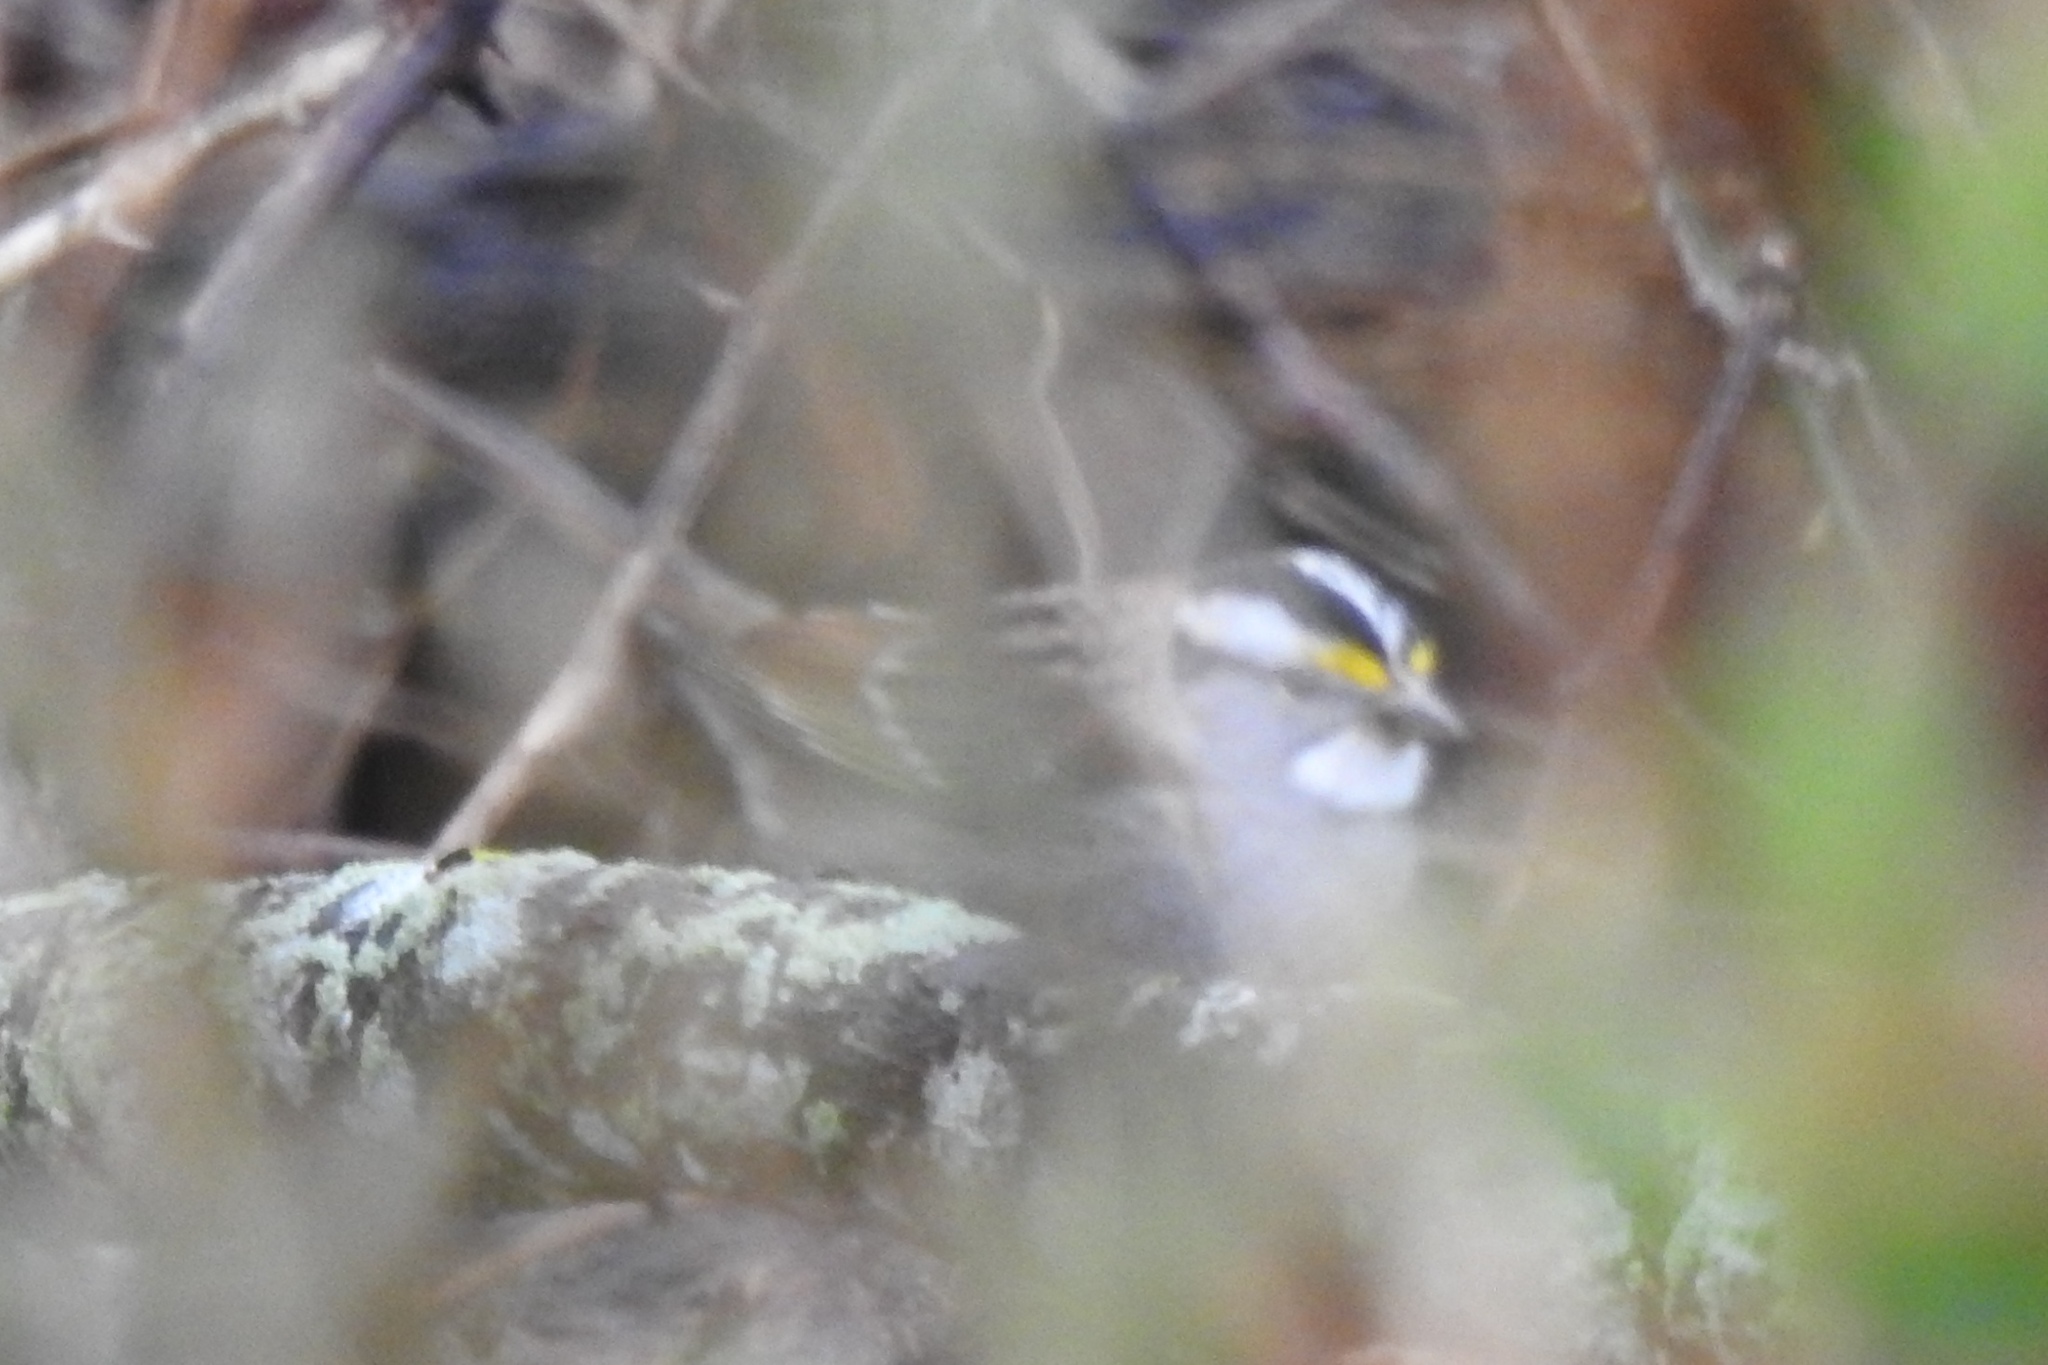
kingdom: Animalia
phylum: Chordata
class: Aves
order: Passeriformes
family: Passerellidae
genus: Zonotrichia
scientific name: Zonotrichia albicollis
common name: White-throated sparrow
